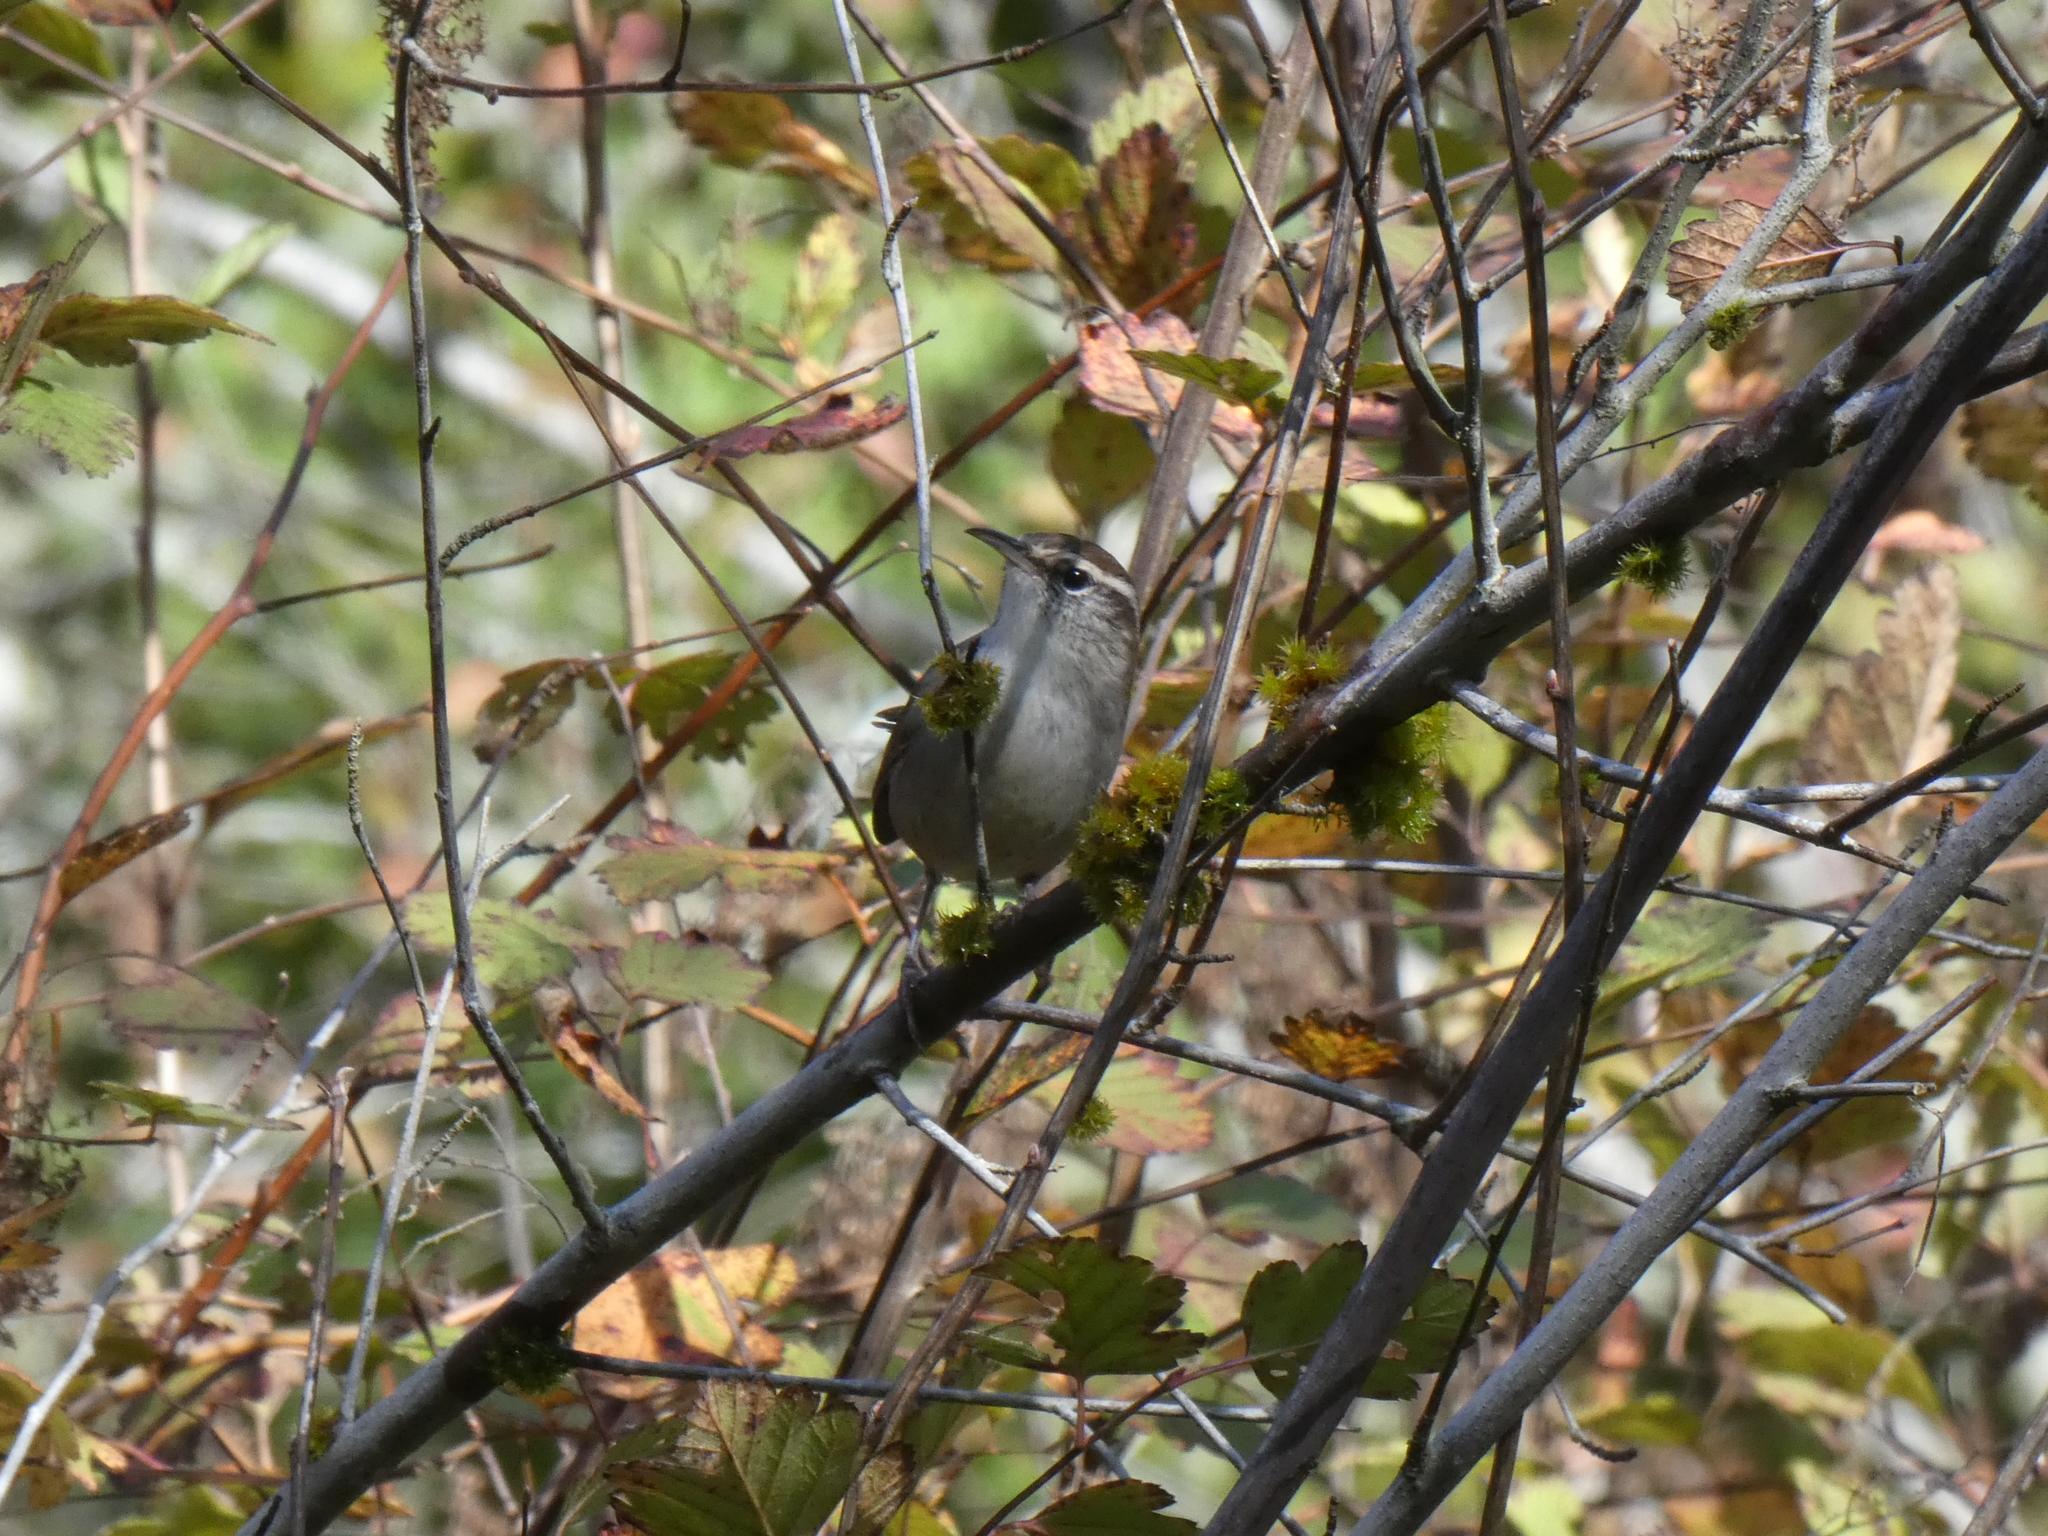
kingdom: Animalia
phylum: Chordata
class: Aves
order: Passeriformes
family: Troglodytidae
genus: Thryomanes
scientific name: Thryomanes bewickii
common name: Bewick's wren
